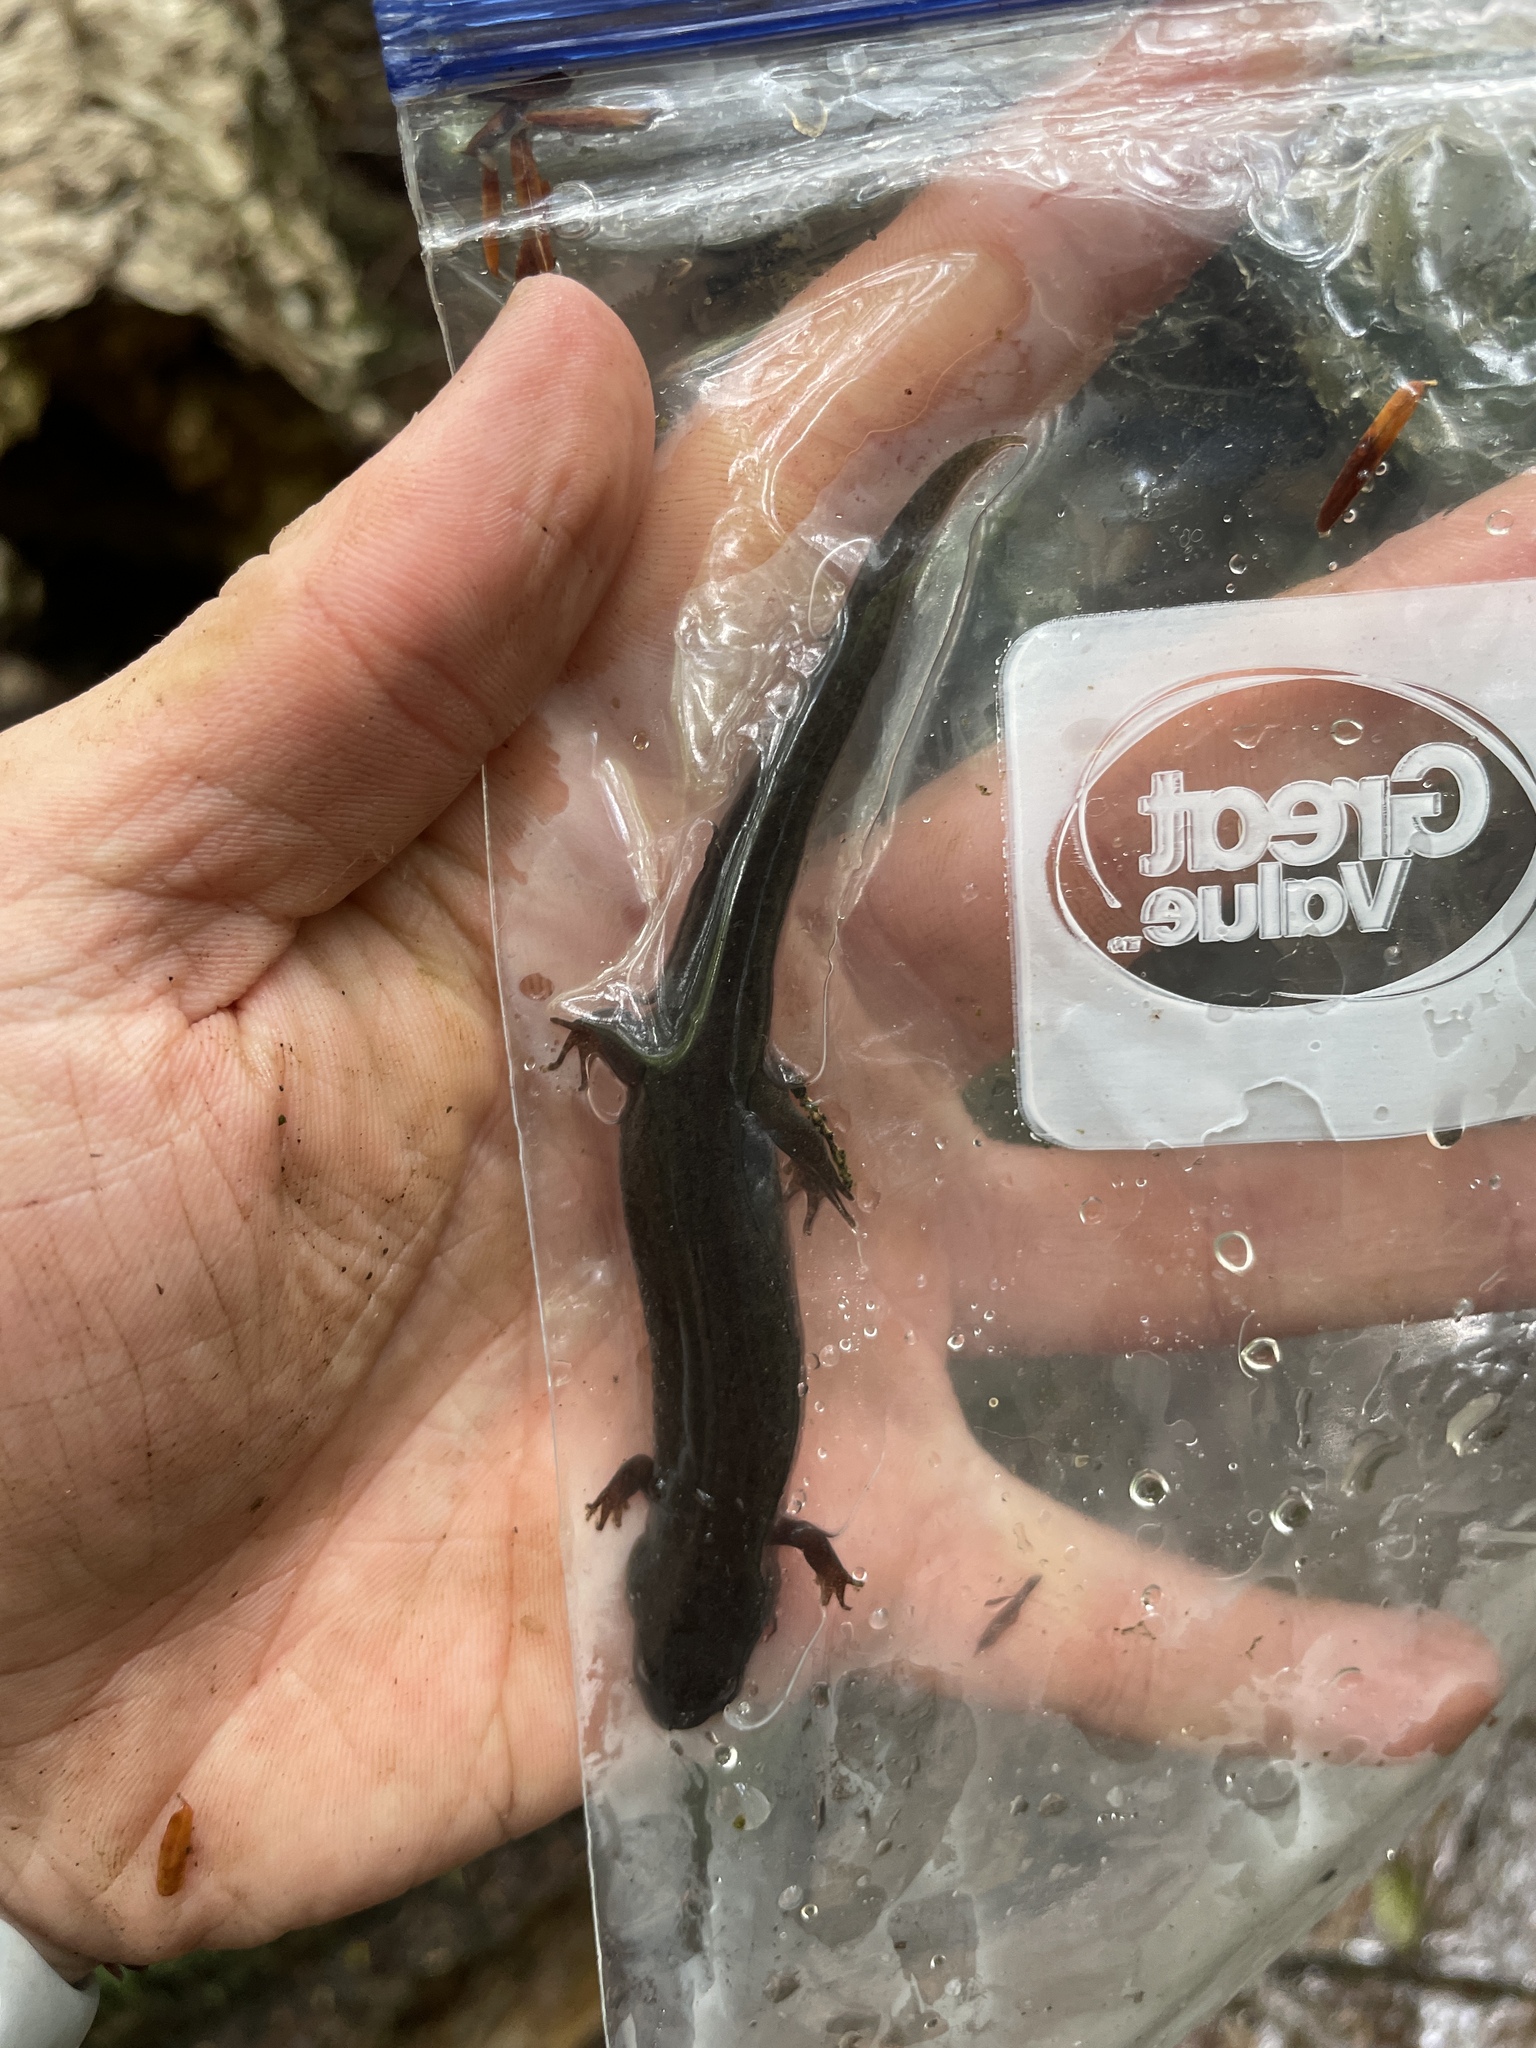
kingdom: Animalia
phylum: Chordata
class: Amphibia
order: Caudata
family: Plethodontidae
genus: Desmognathus
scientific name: Desmognathus fuscus
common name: Northern dusky salamander
